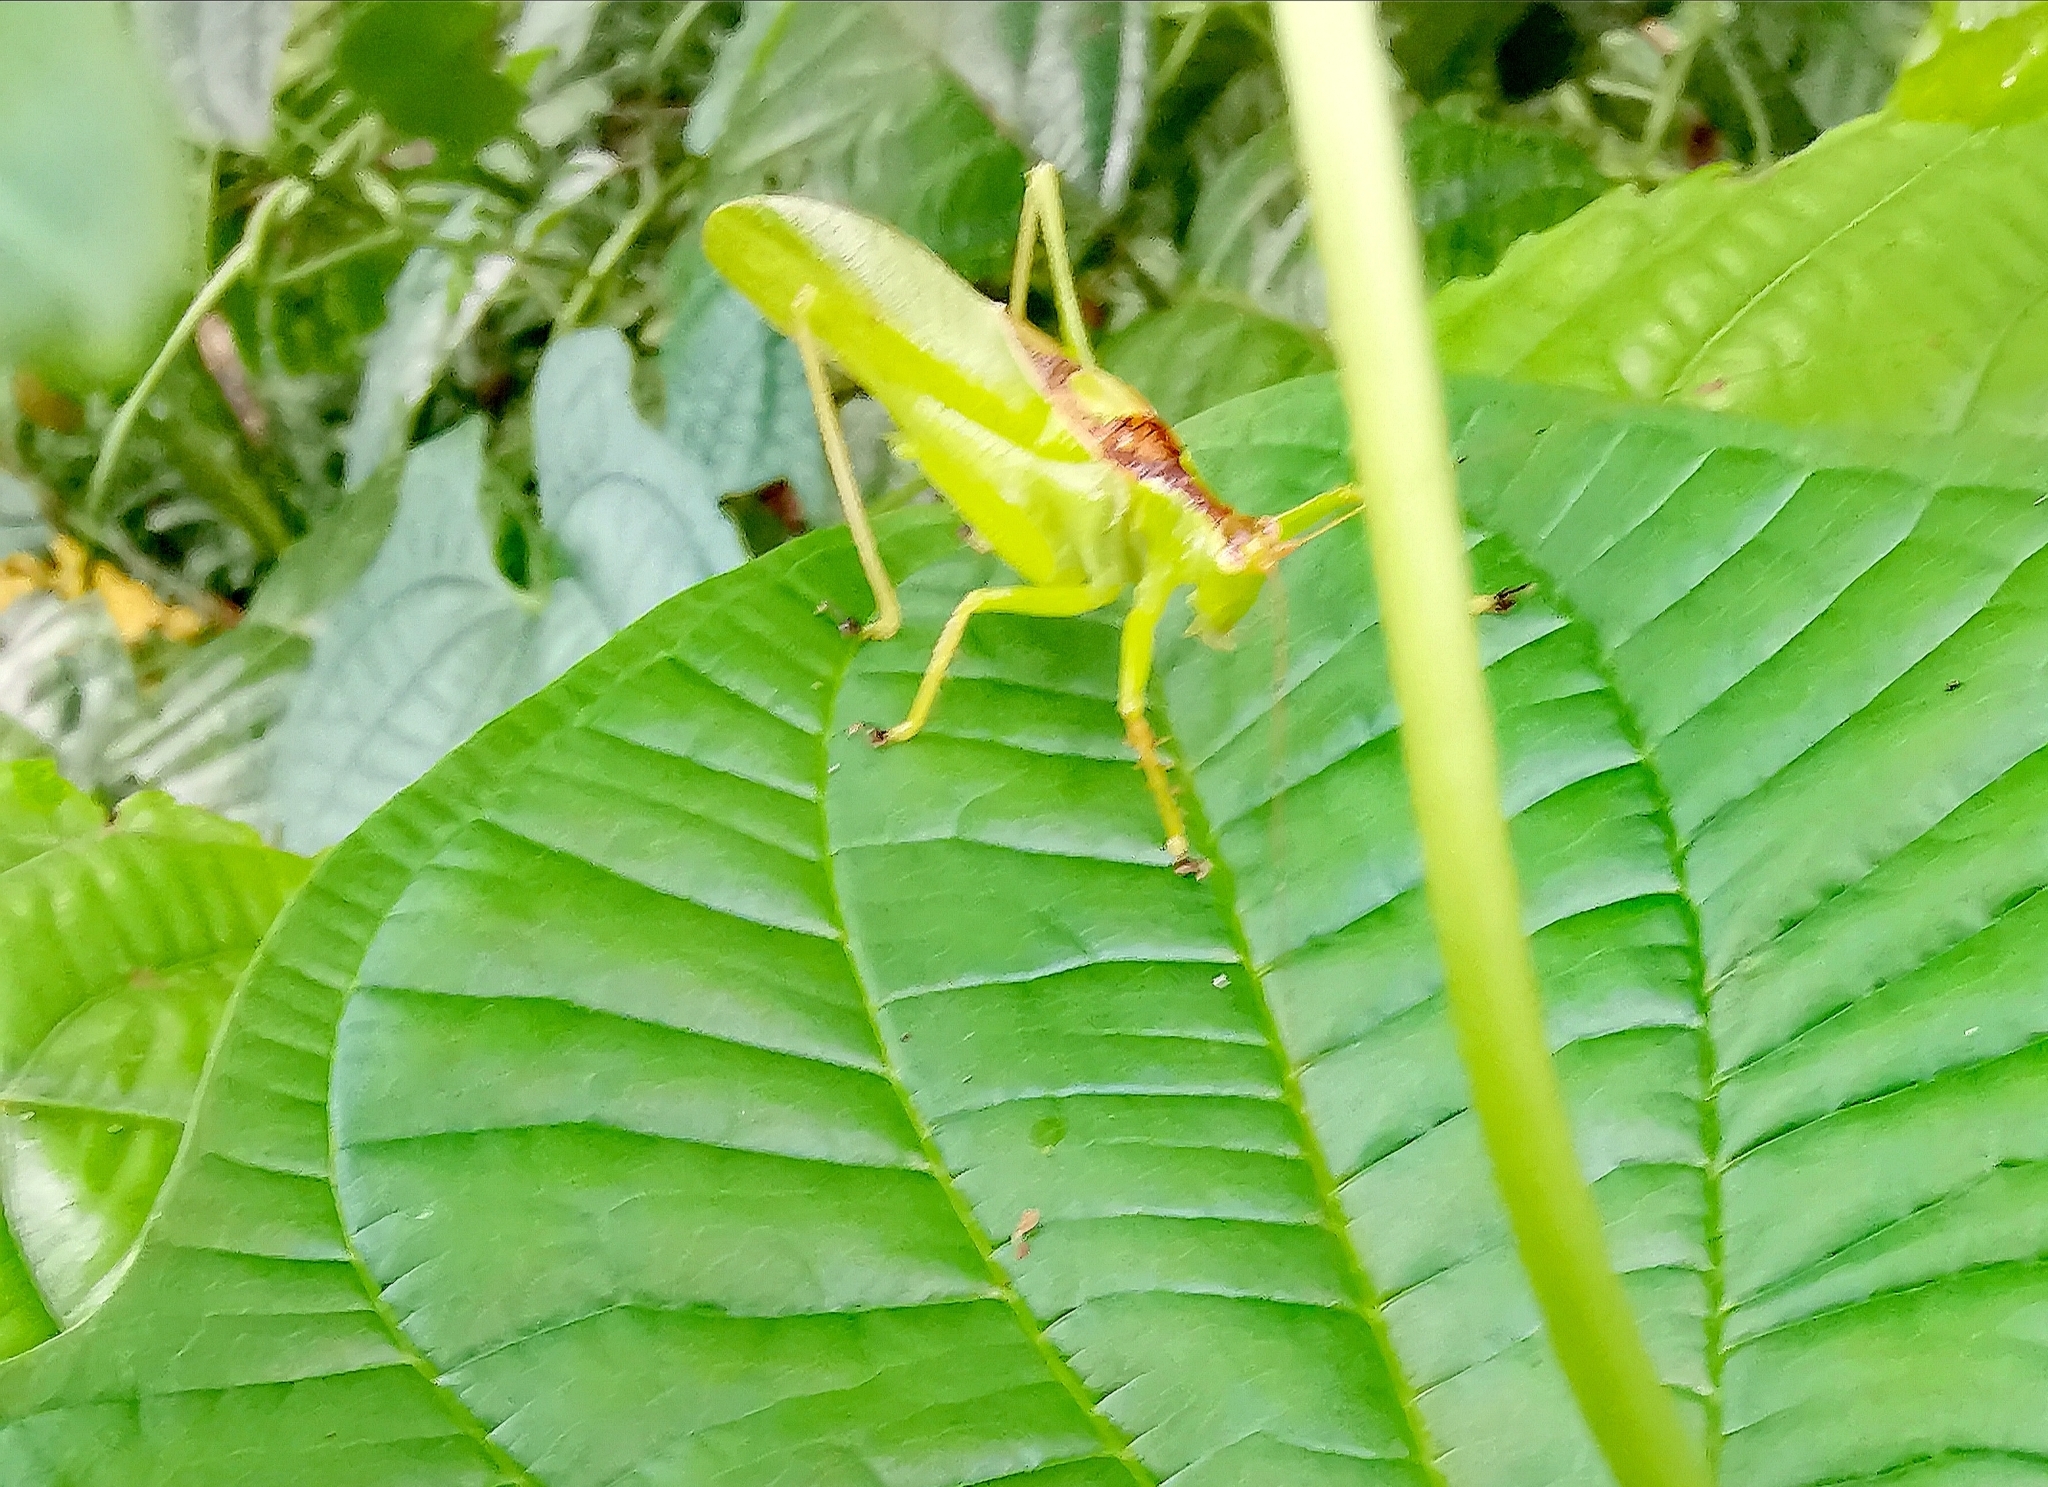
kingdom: Animalia
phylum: Arthropoda
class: Insecta
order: Orthoptera
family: Tettigoniidae
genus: Hexacentrus
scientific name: Hexacentrus unicolor
